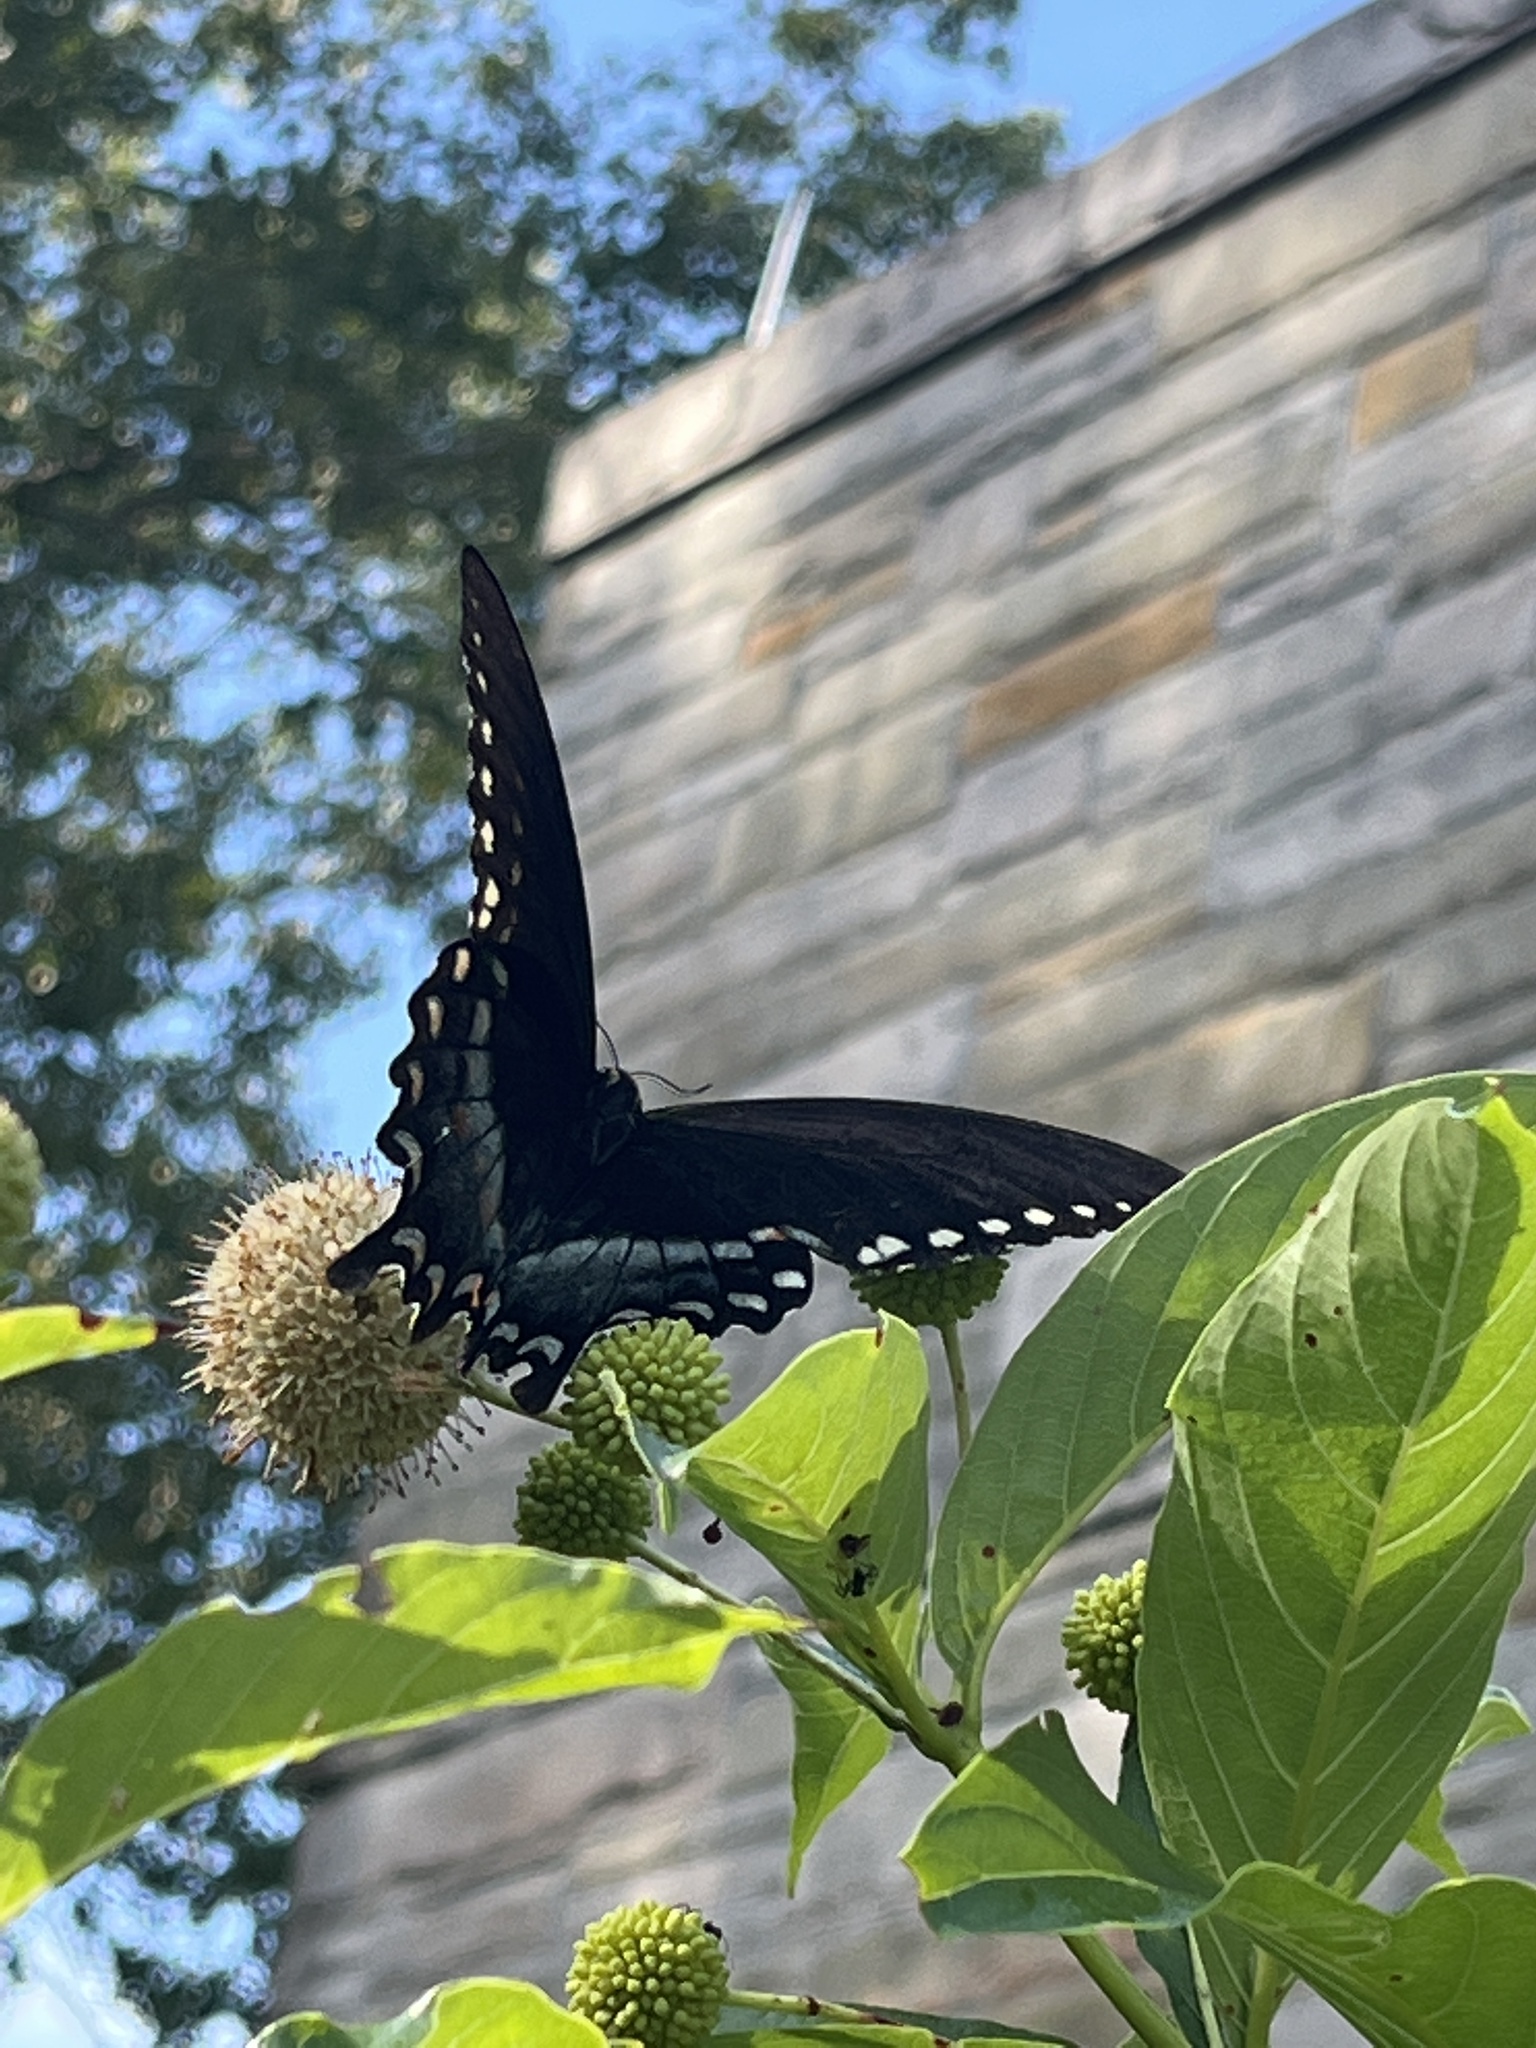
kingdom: Animalia
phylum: Arthropoda
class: Insecta
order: Lepidoptera
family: Papilionidae
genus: Papilio
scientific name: Papilio troilus
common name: Spicebush swallowtail
